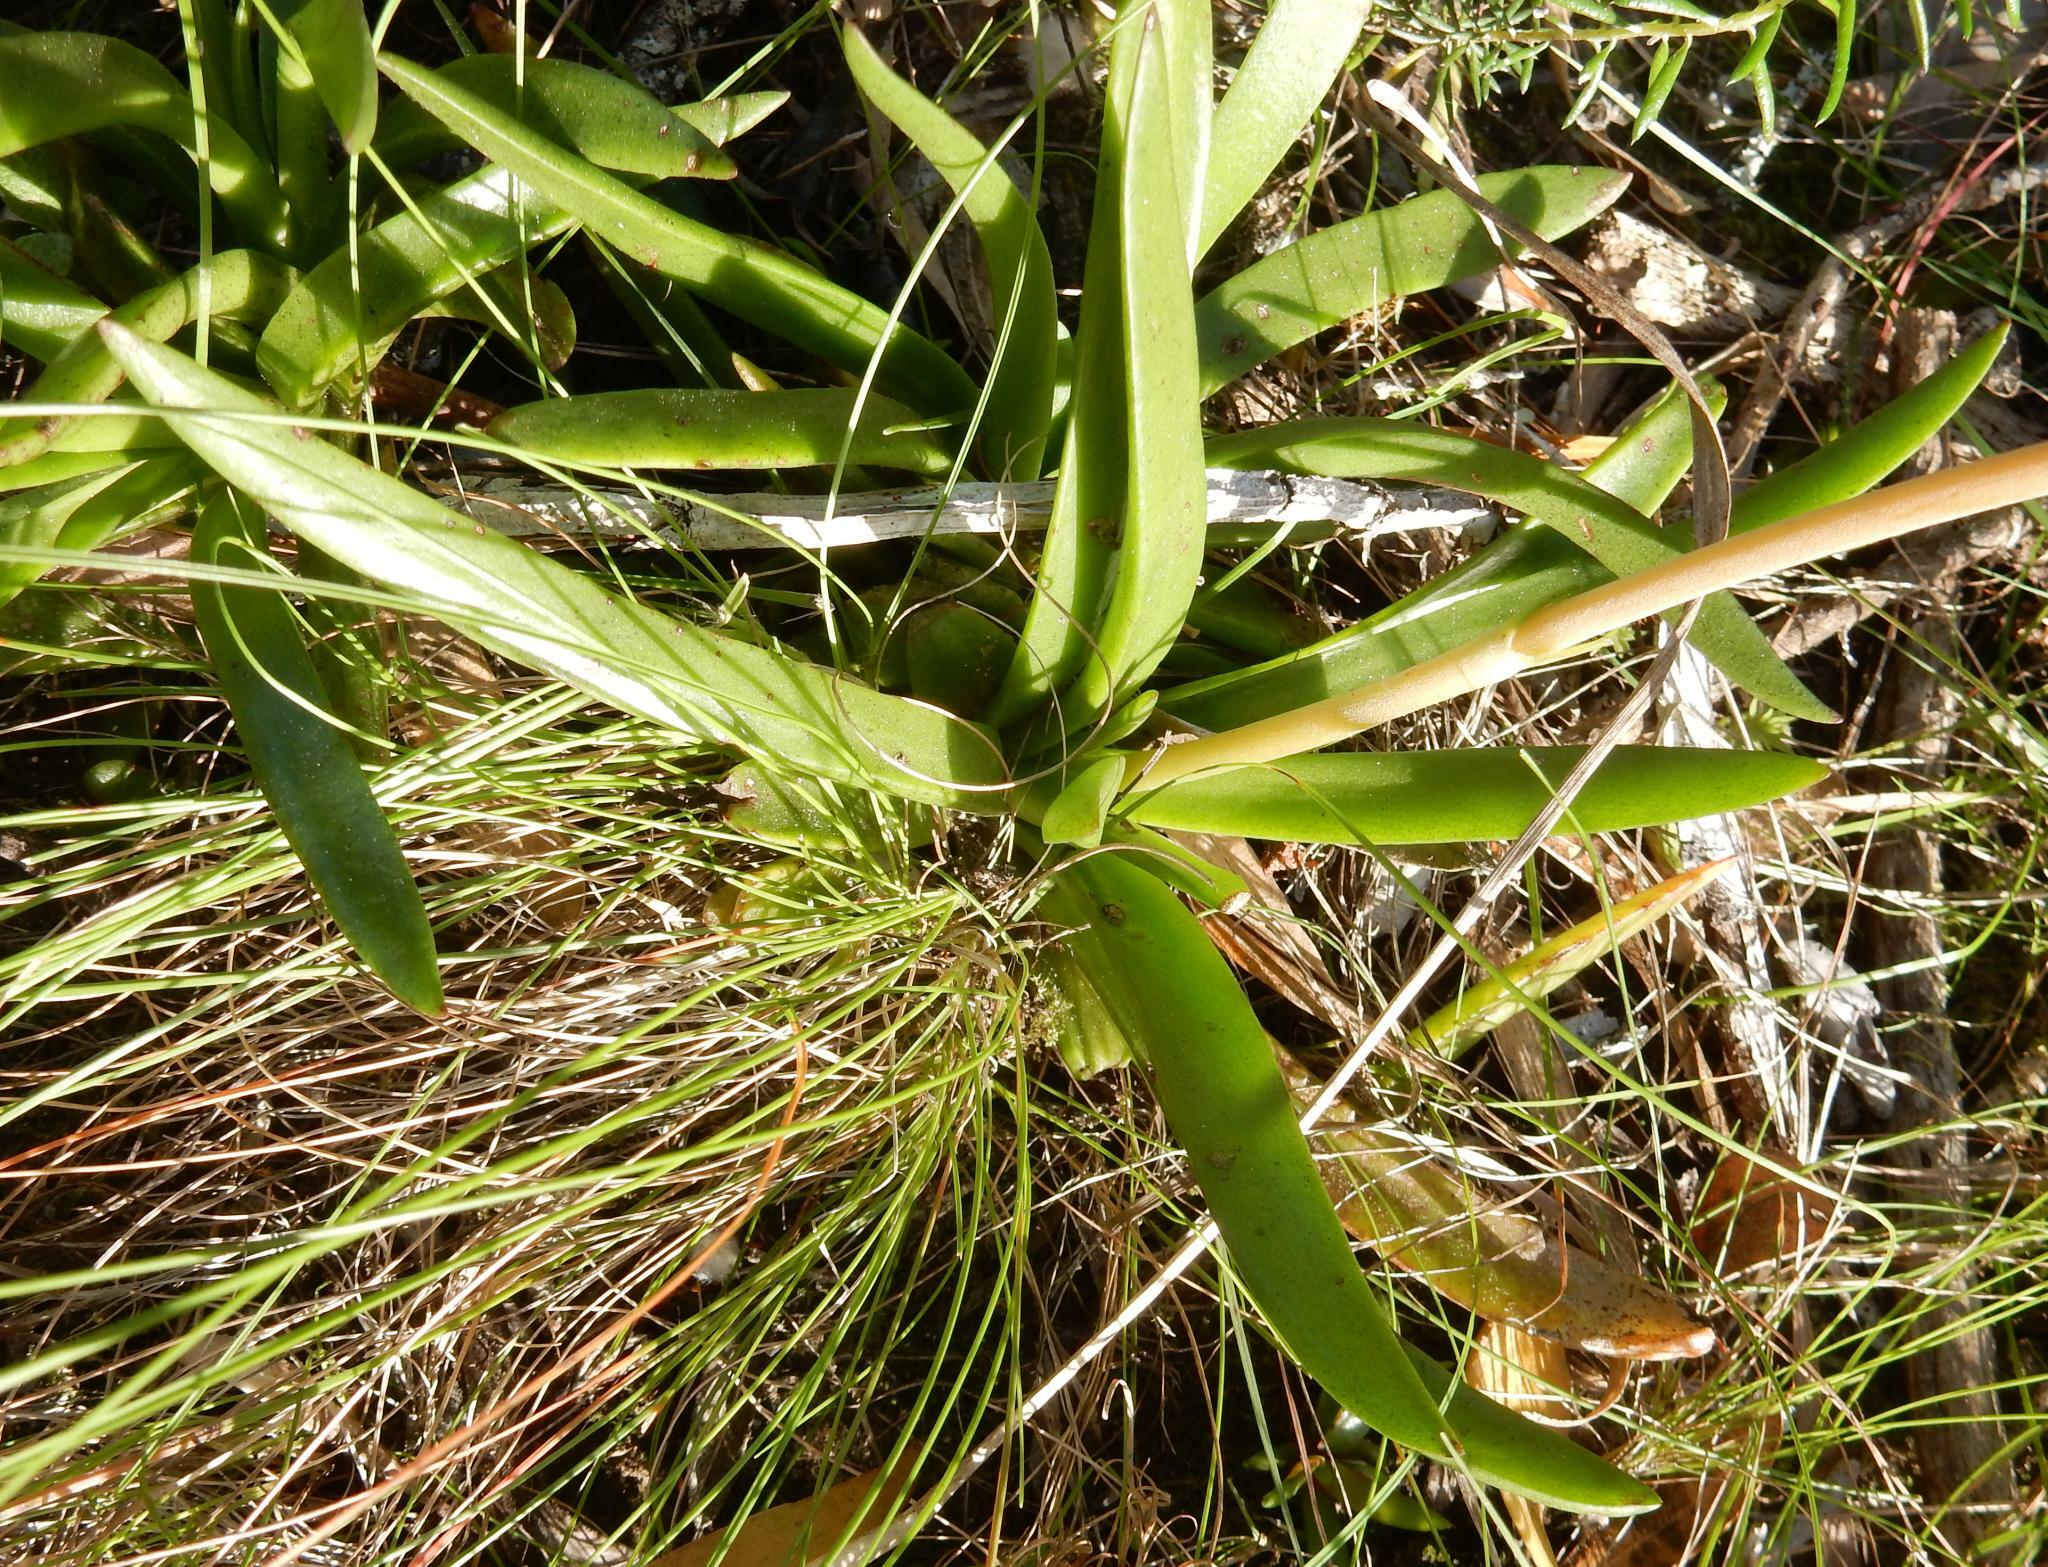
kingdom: Plantae
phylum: Tracheophyta
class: Magnoliopsida
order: Saxifragales
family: Crassulaceae
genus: Crassula
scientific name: Crassula nudicaulis
